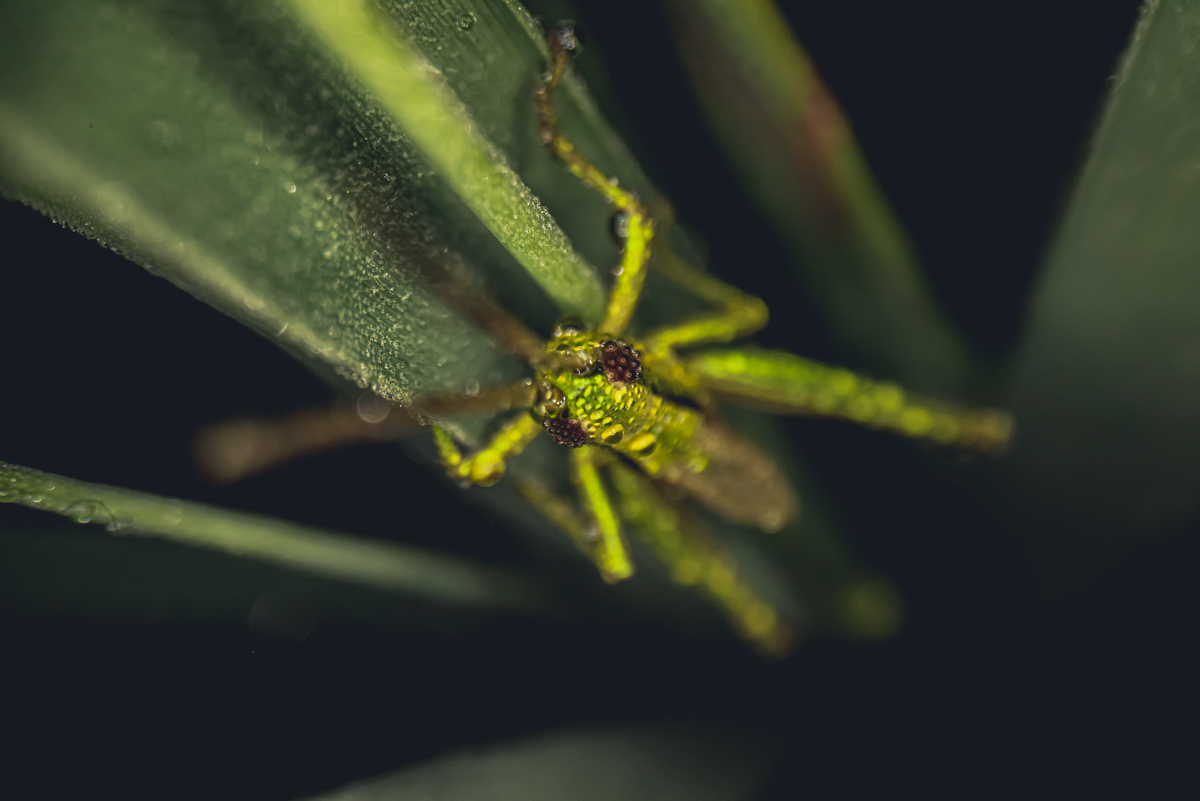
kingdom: Animalia
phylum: Arthropoda
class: Insecta
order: Orthoptera
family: Acrididae
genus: Euthystira
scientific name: Euthystira brachyptera
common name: Small gold grasshopper
